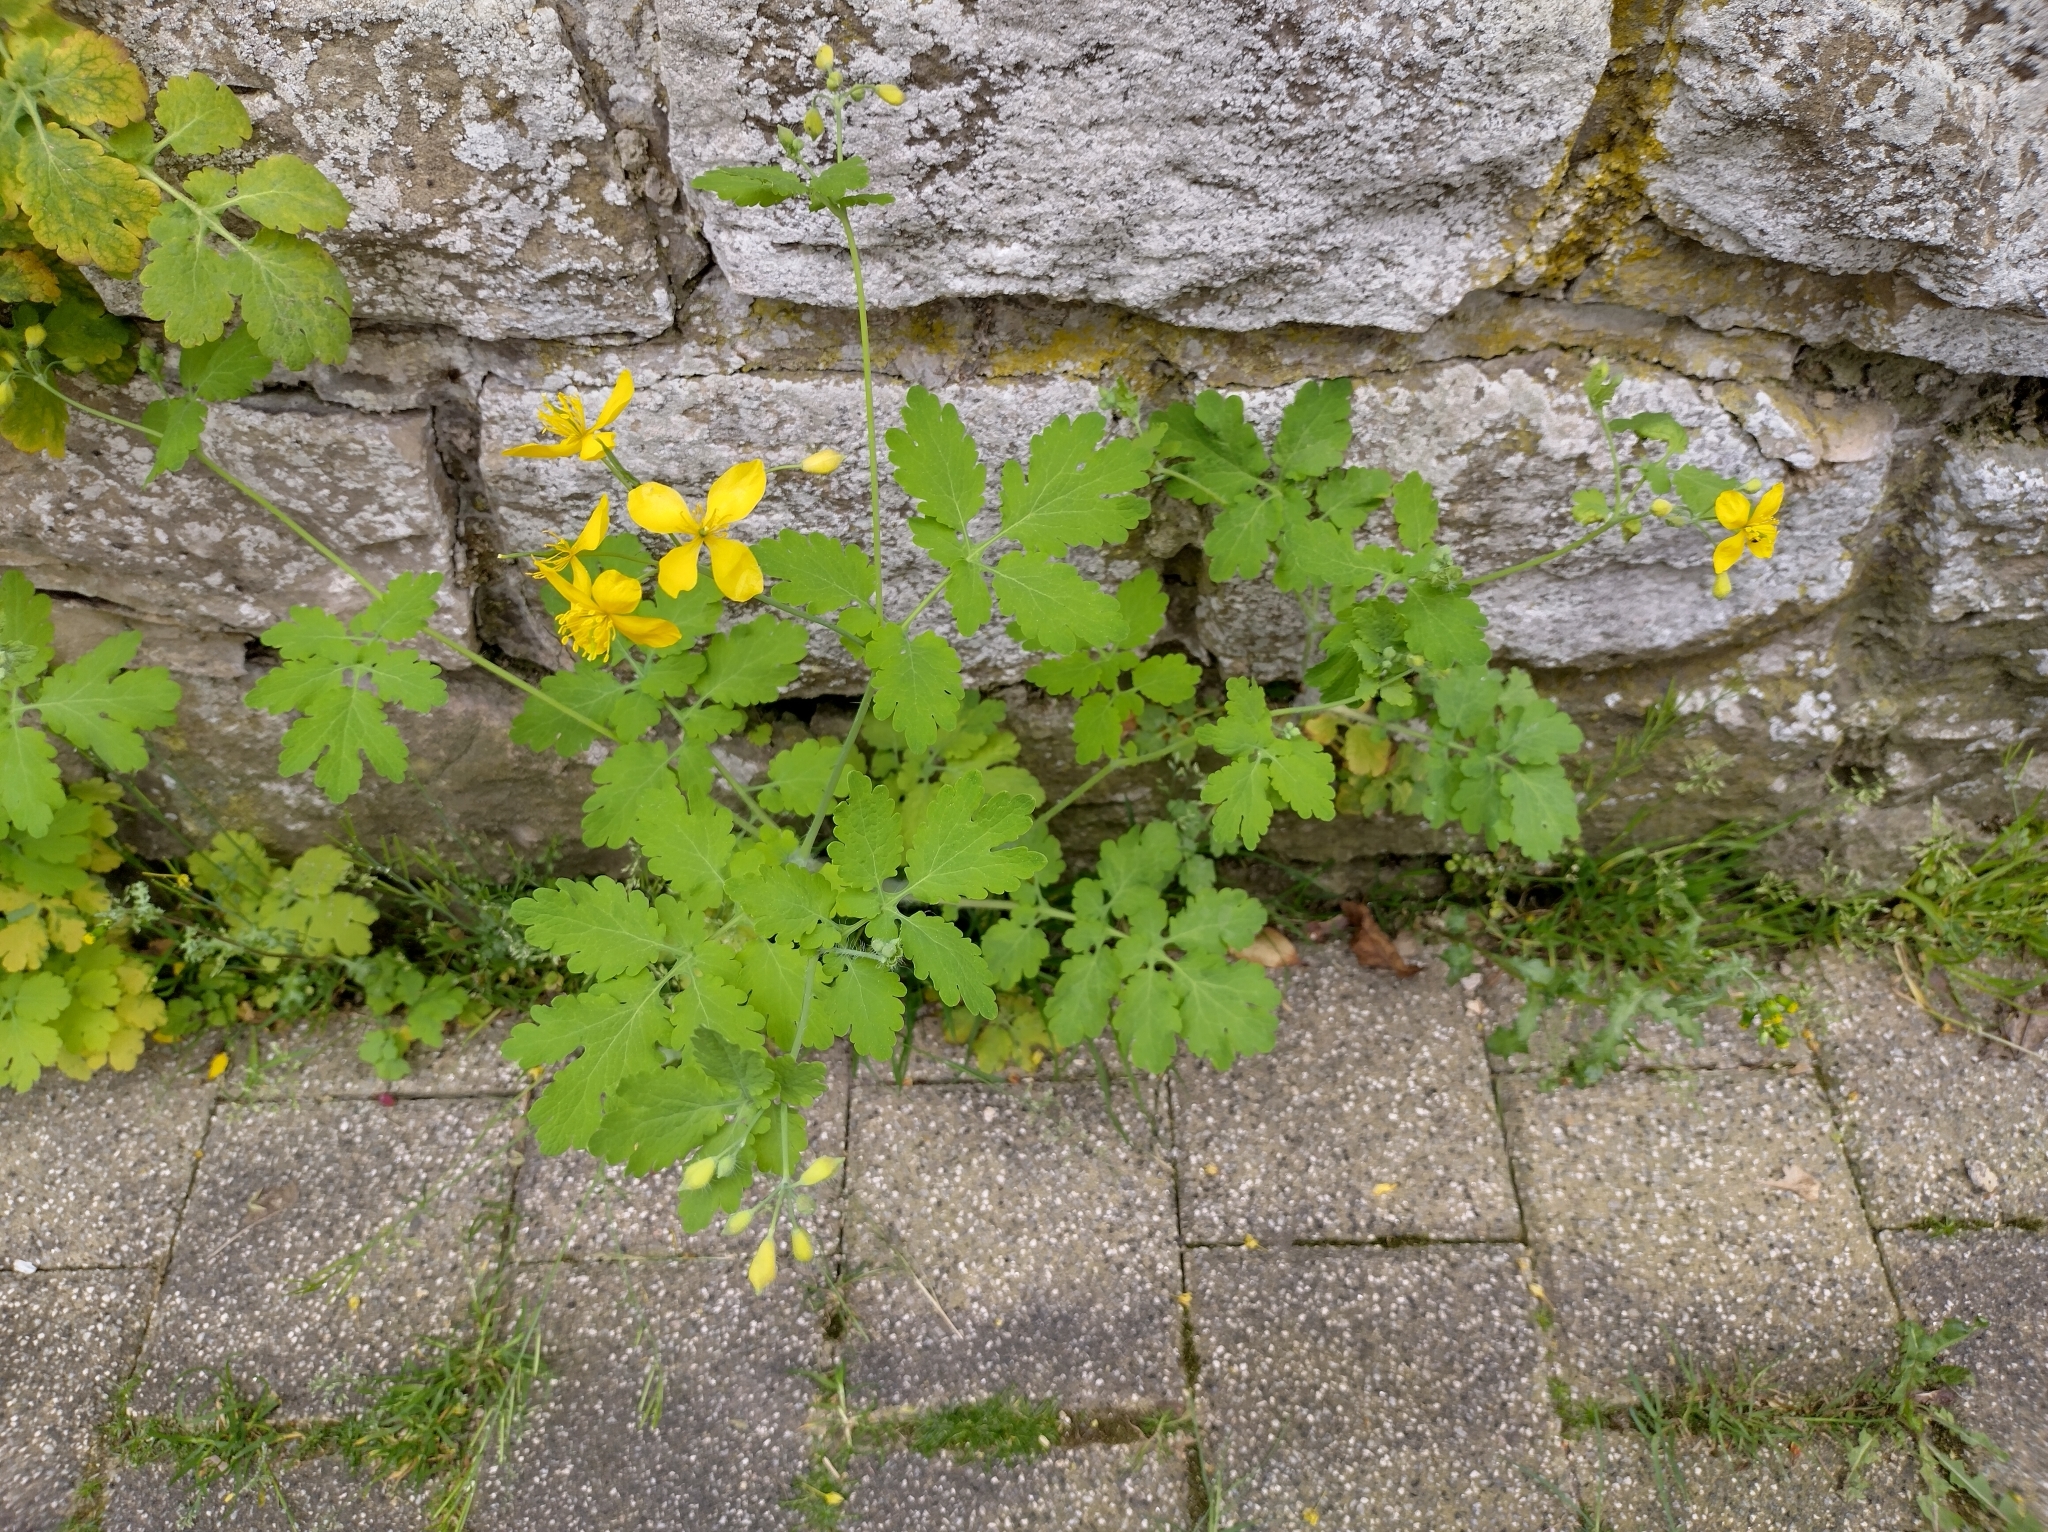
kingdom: Plantae
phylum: Tracheophyta
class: Magnoliopsida
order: Ranunculales
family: Papaveraceae
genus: Chelidonium
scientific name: Chelidonium majus
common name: Greater celandine
